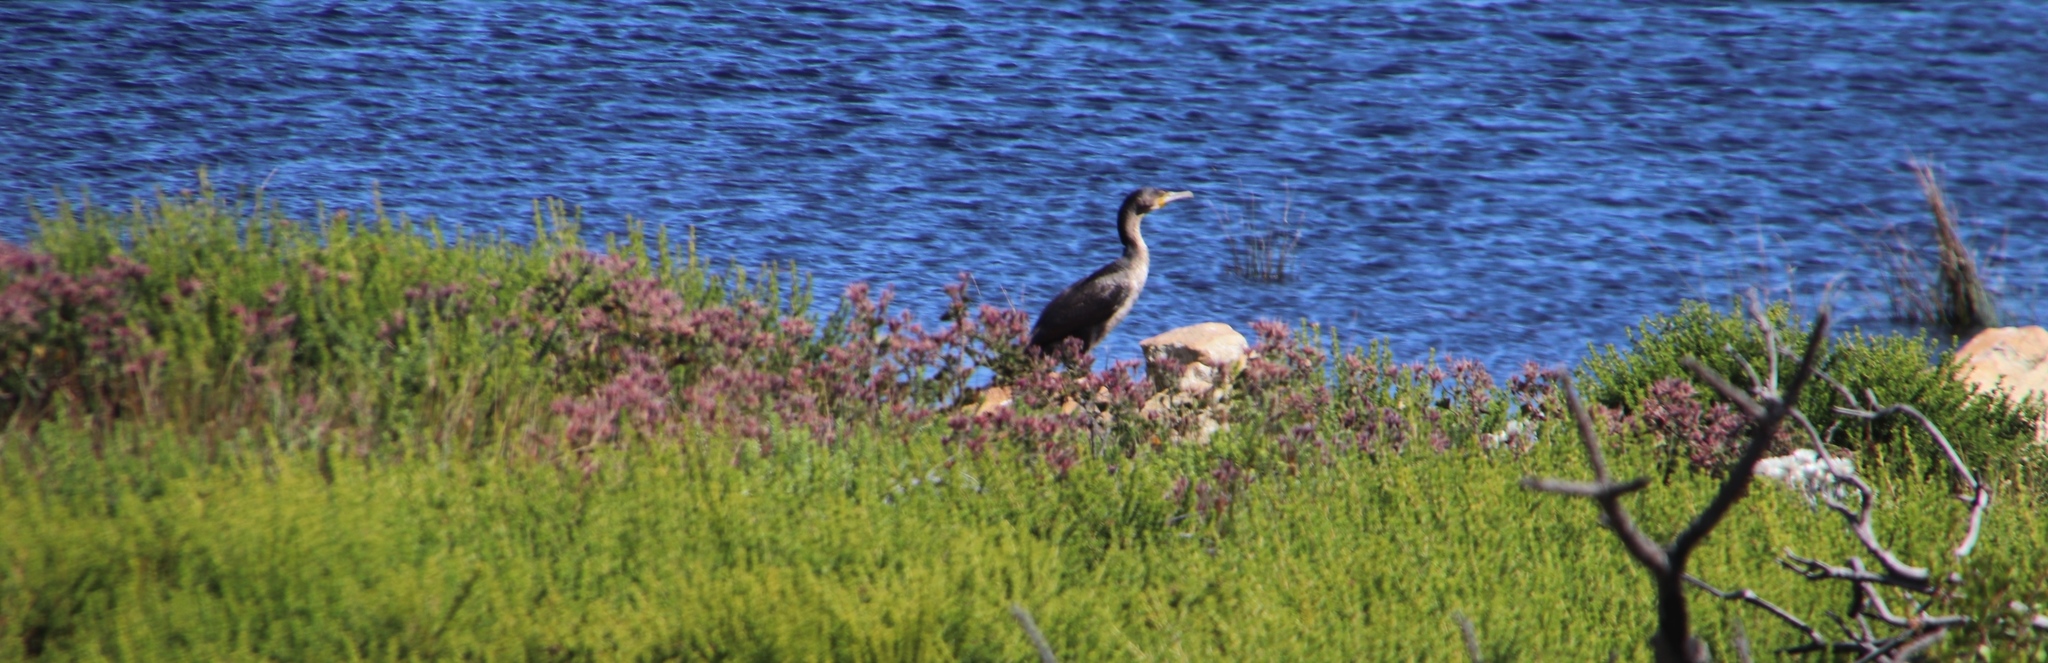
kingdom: Animalia
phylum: Chordata
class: Aves
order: Suliformes
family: Phalacrocoracidae
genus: Phalacrocorax
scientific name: Phalacrocorax carbo
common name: Great cormorant
